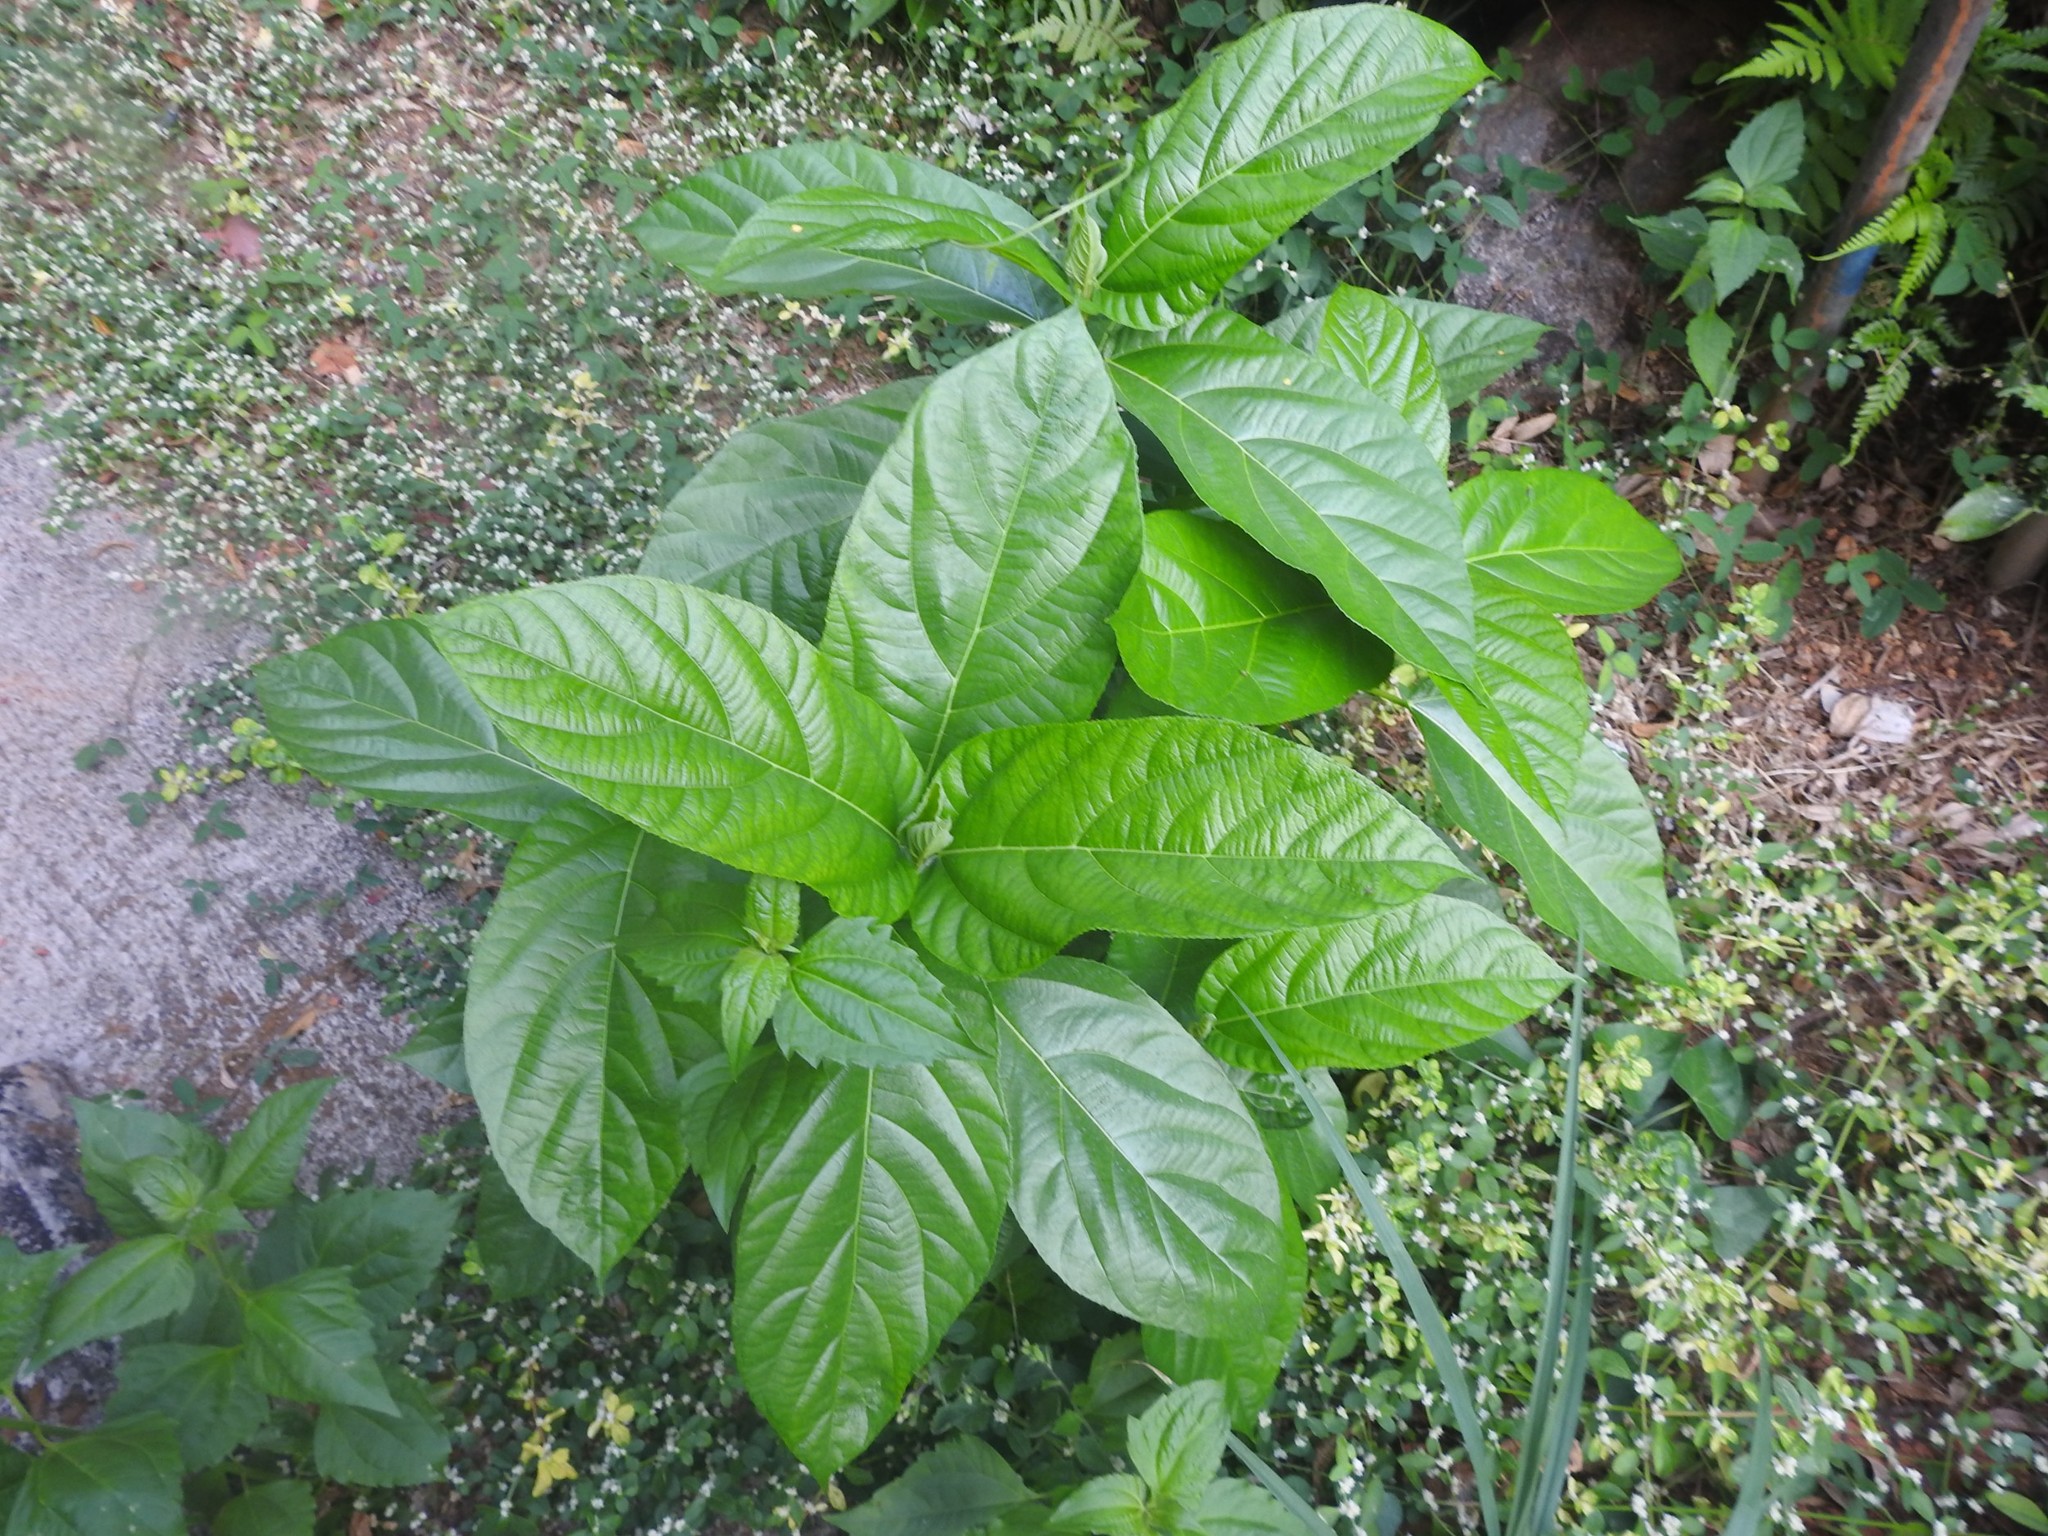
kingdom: Plantae
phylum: Tracheophyta
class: Magnoliopsida
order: Rosales
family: Moraceae
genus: Ficus
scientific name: Ficus hispida
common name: Hairy fig
